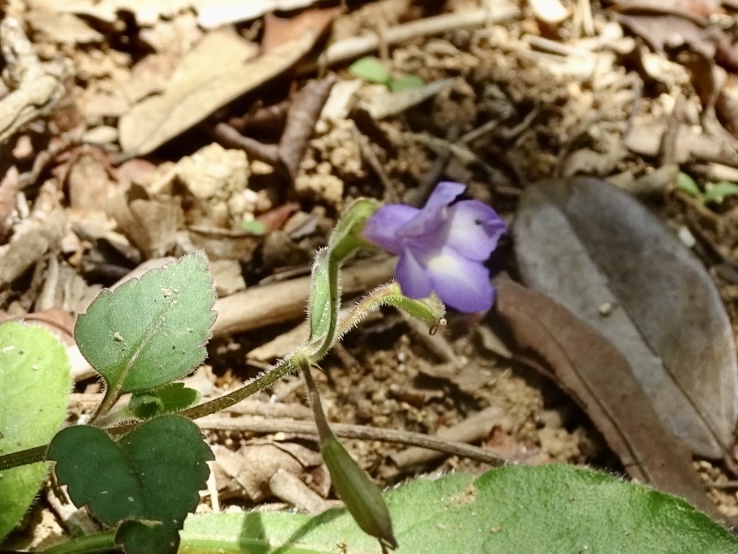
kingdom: Plantae
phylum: Tracheophyta
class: Magnoliopsida
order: Lamiales
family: Linderniaceae
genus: Torenia
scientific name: Torenia benthamiana
